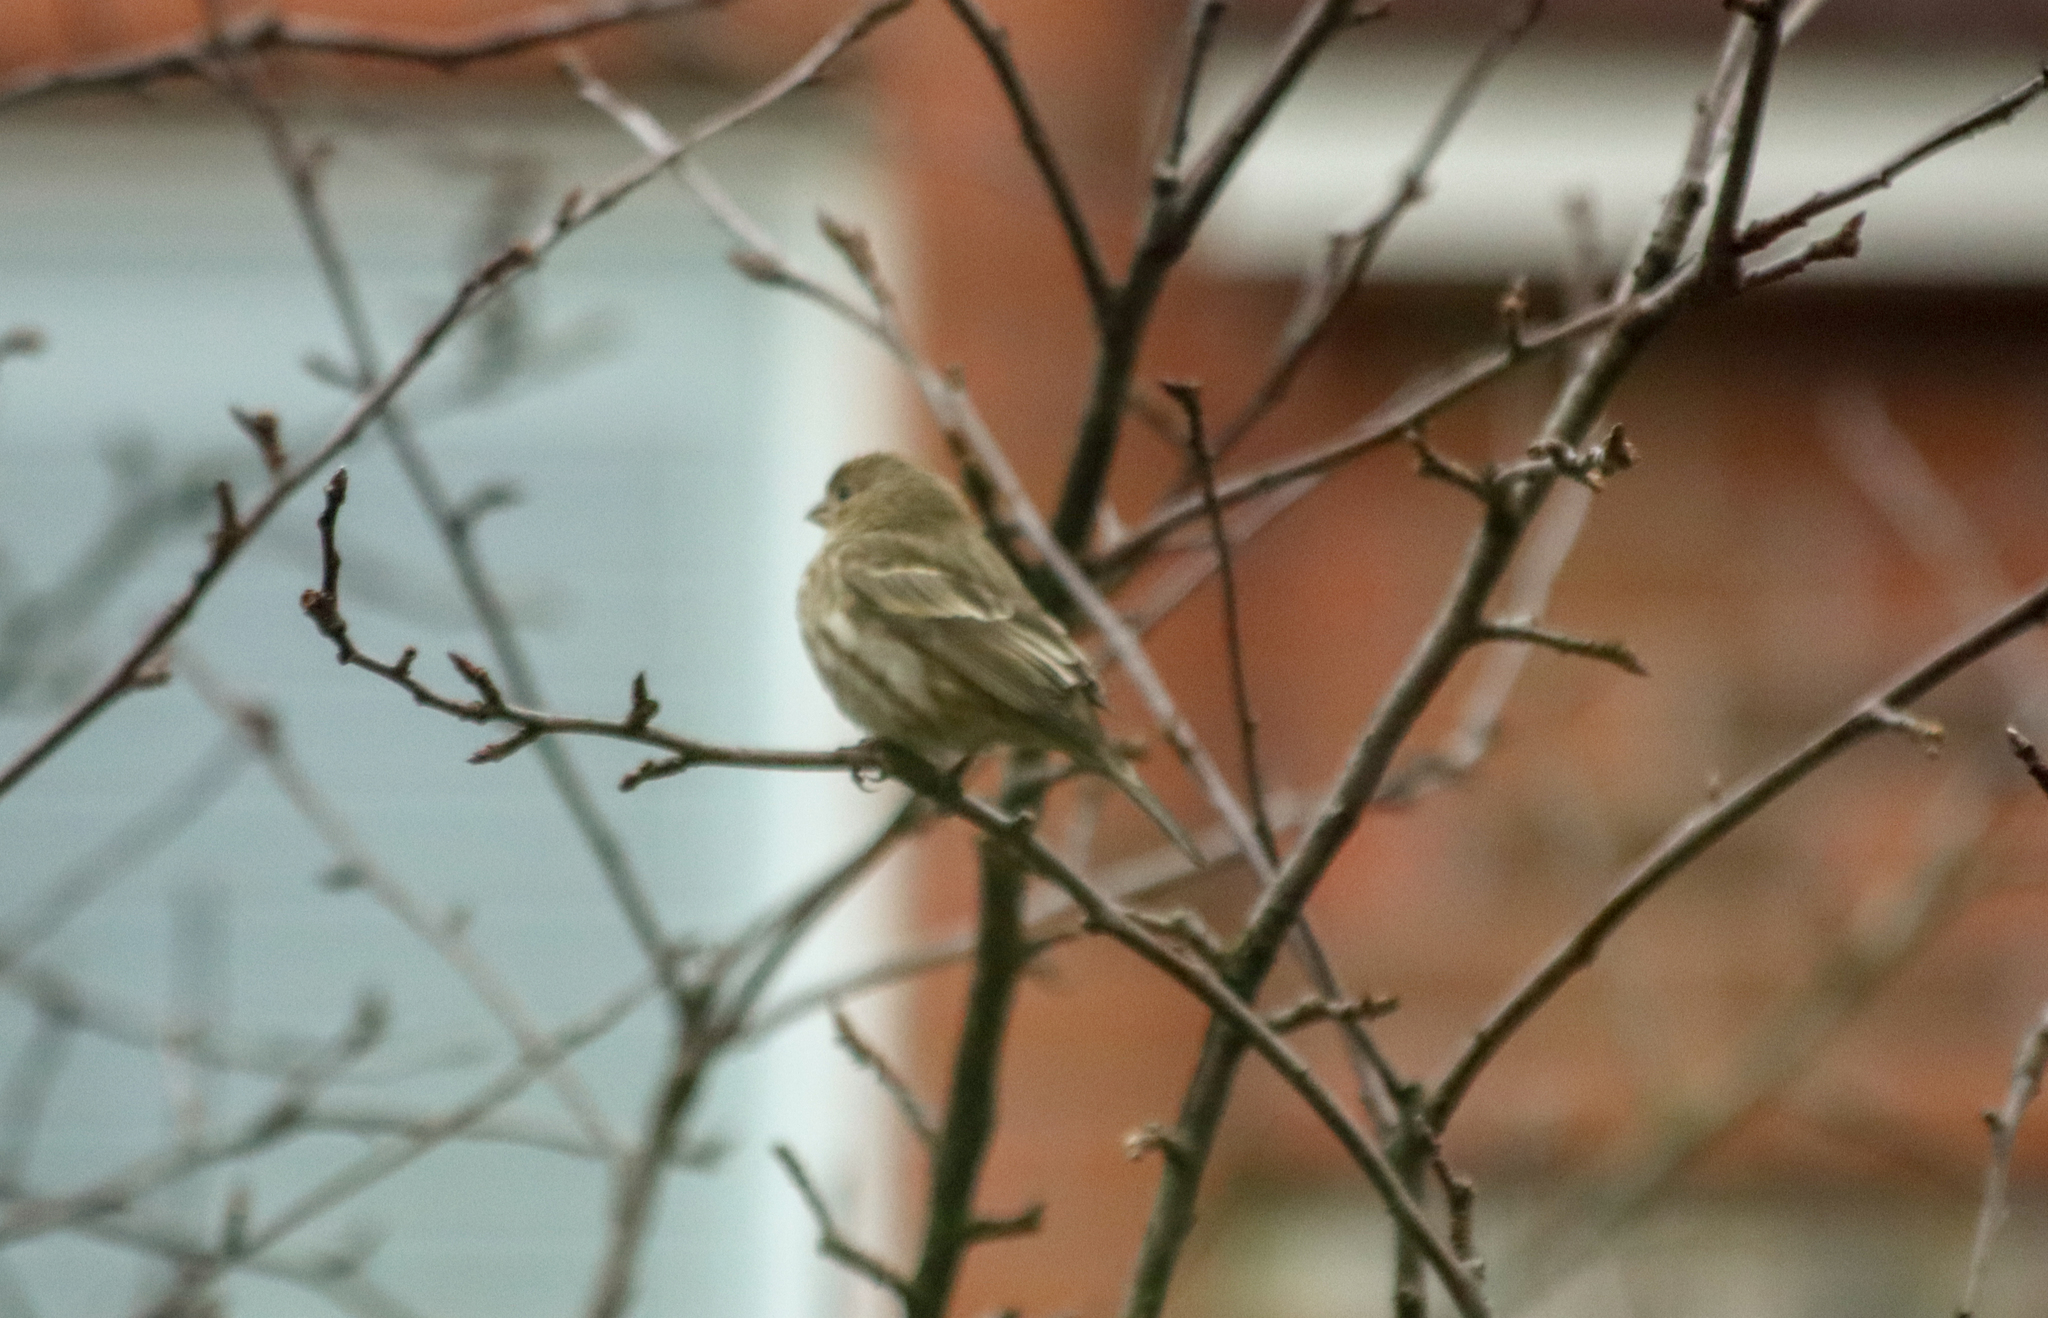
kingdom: Animalia
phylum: Chordata
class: Aves
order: Passeriformes
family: Fringillidae
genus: Haemorhous
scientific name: Haemorhous mexicanus
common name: House finch
